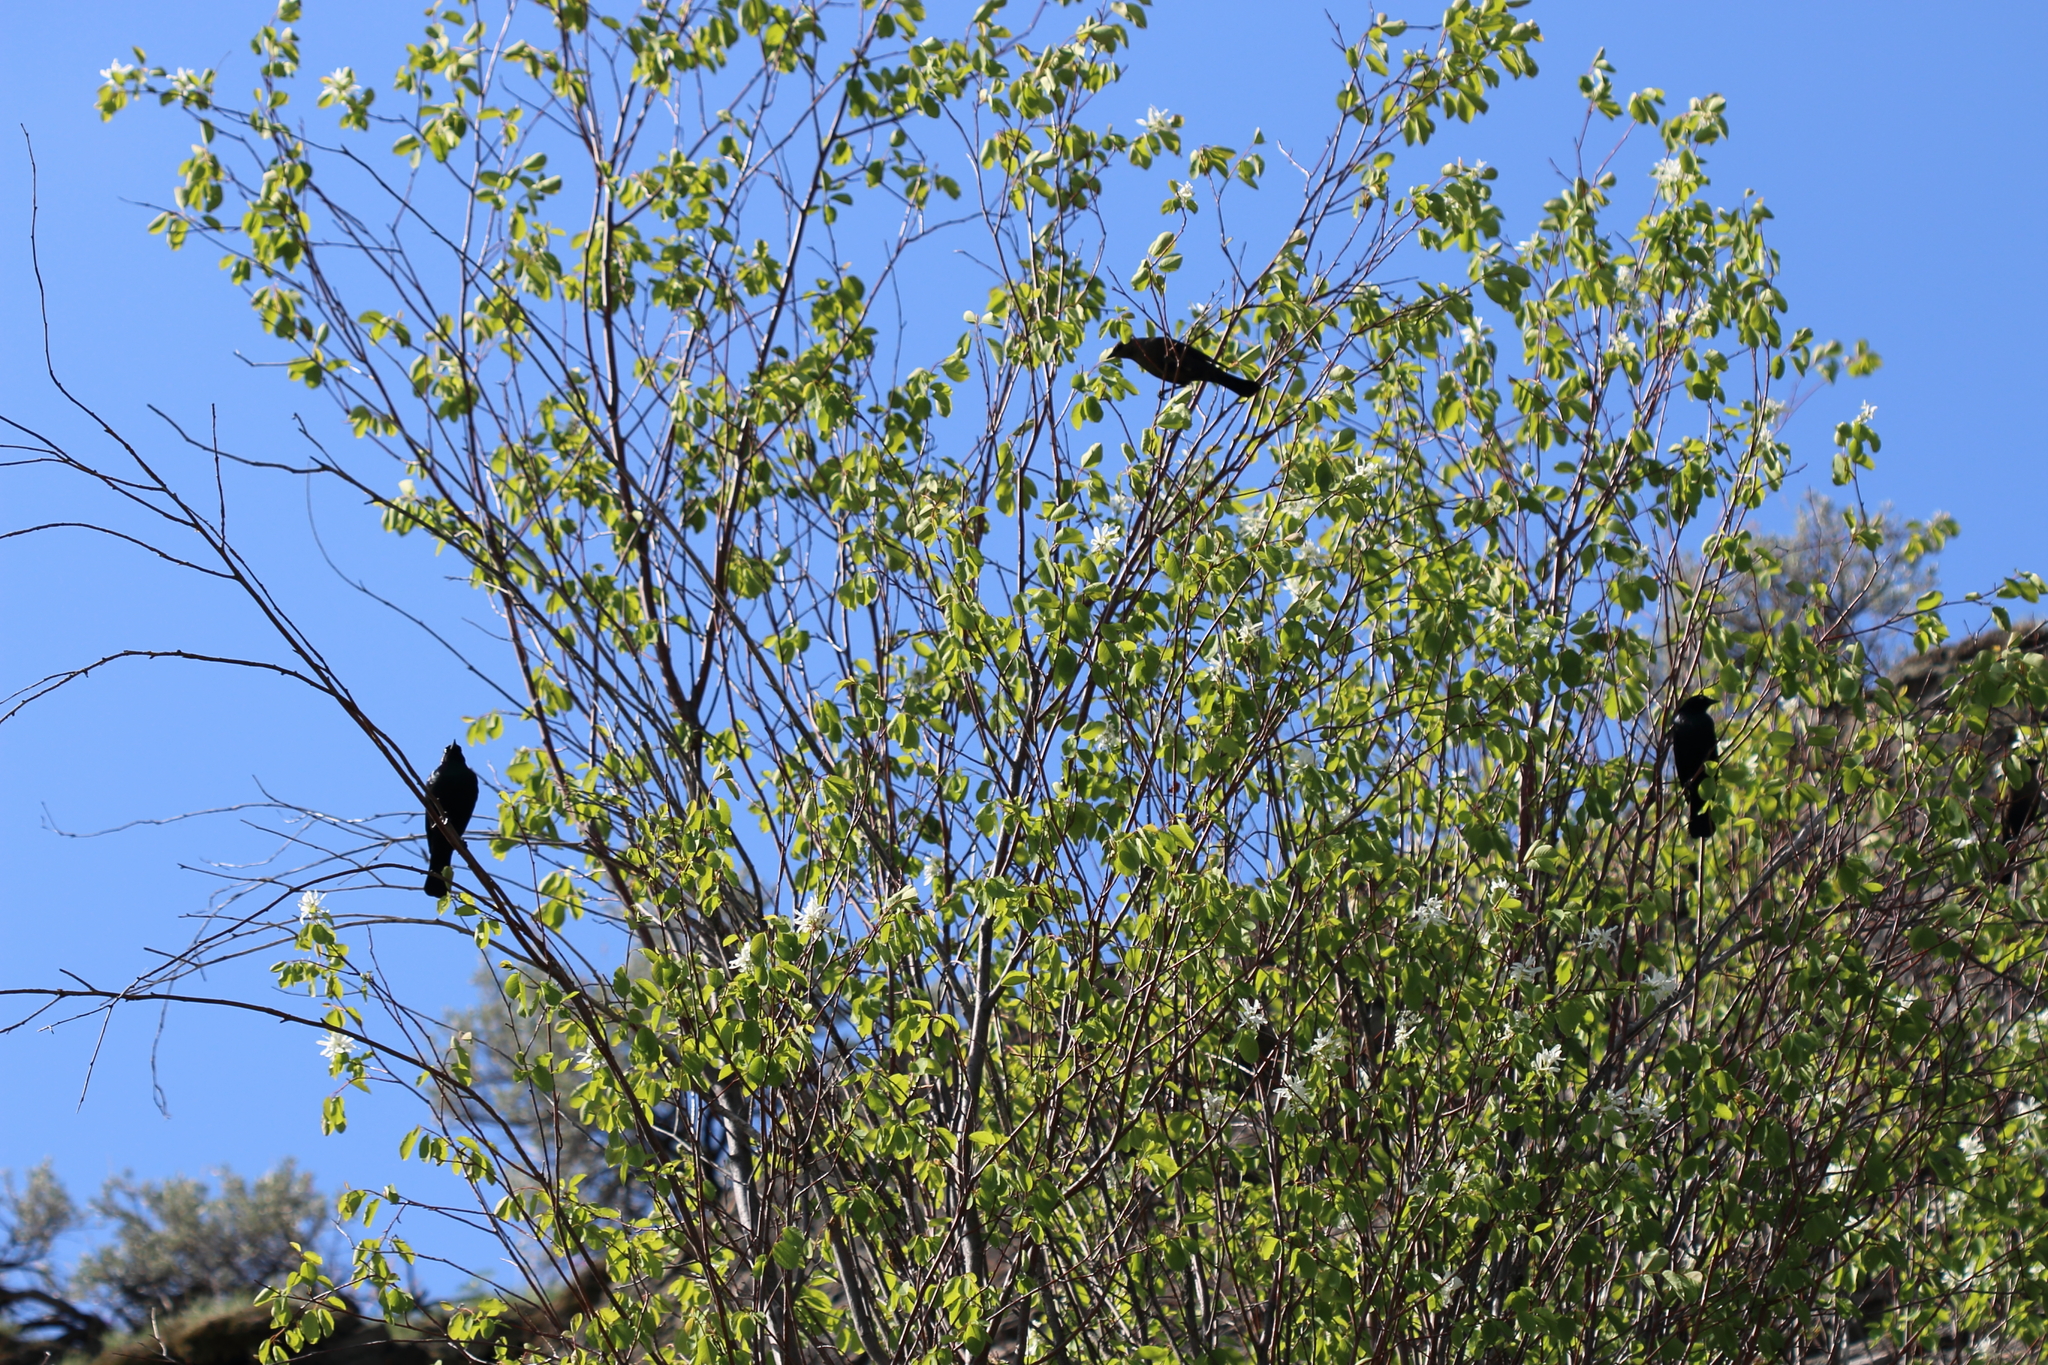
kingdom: Animalia
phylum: Chordata
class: Aves
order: Passeriformes
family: Icteridae
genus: Euphagus
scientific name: Euphagus cyanocephalus
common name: Brewer's blackbird
